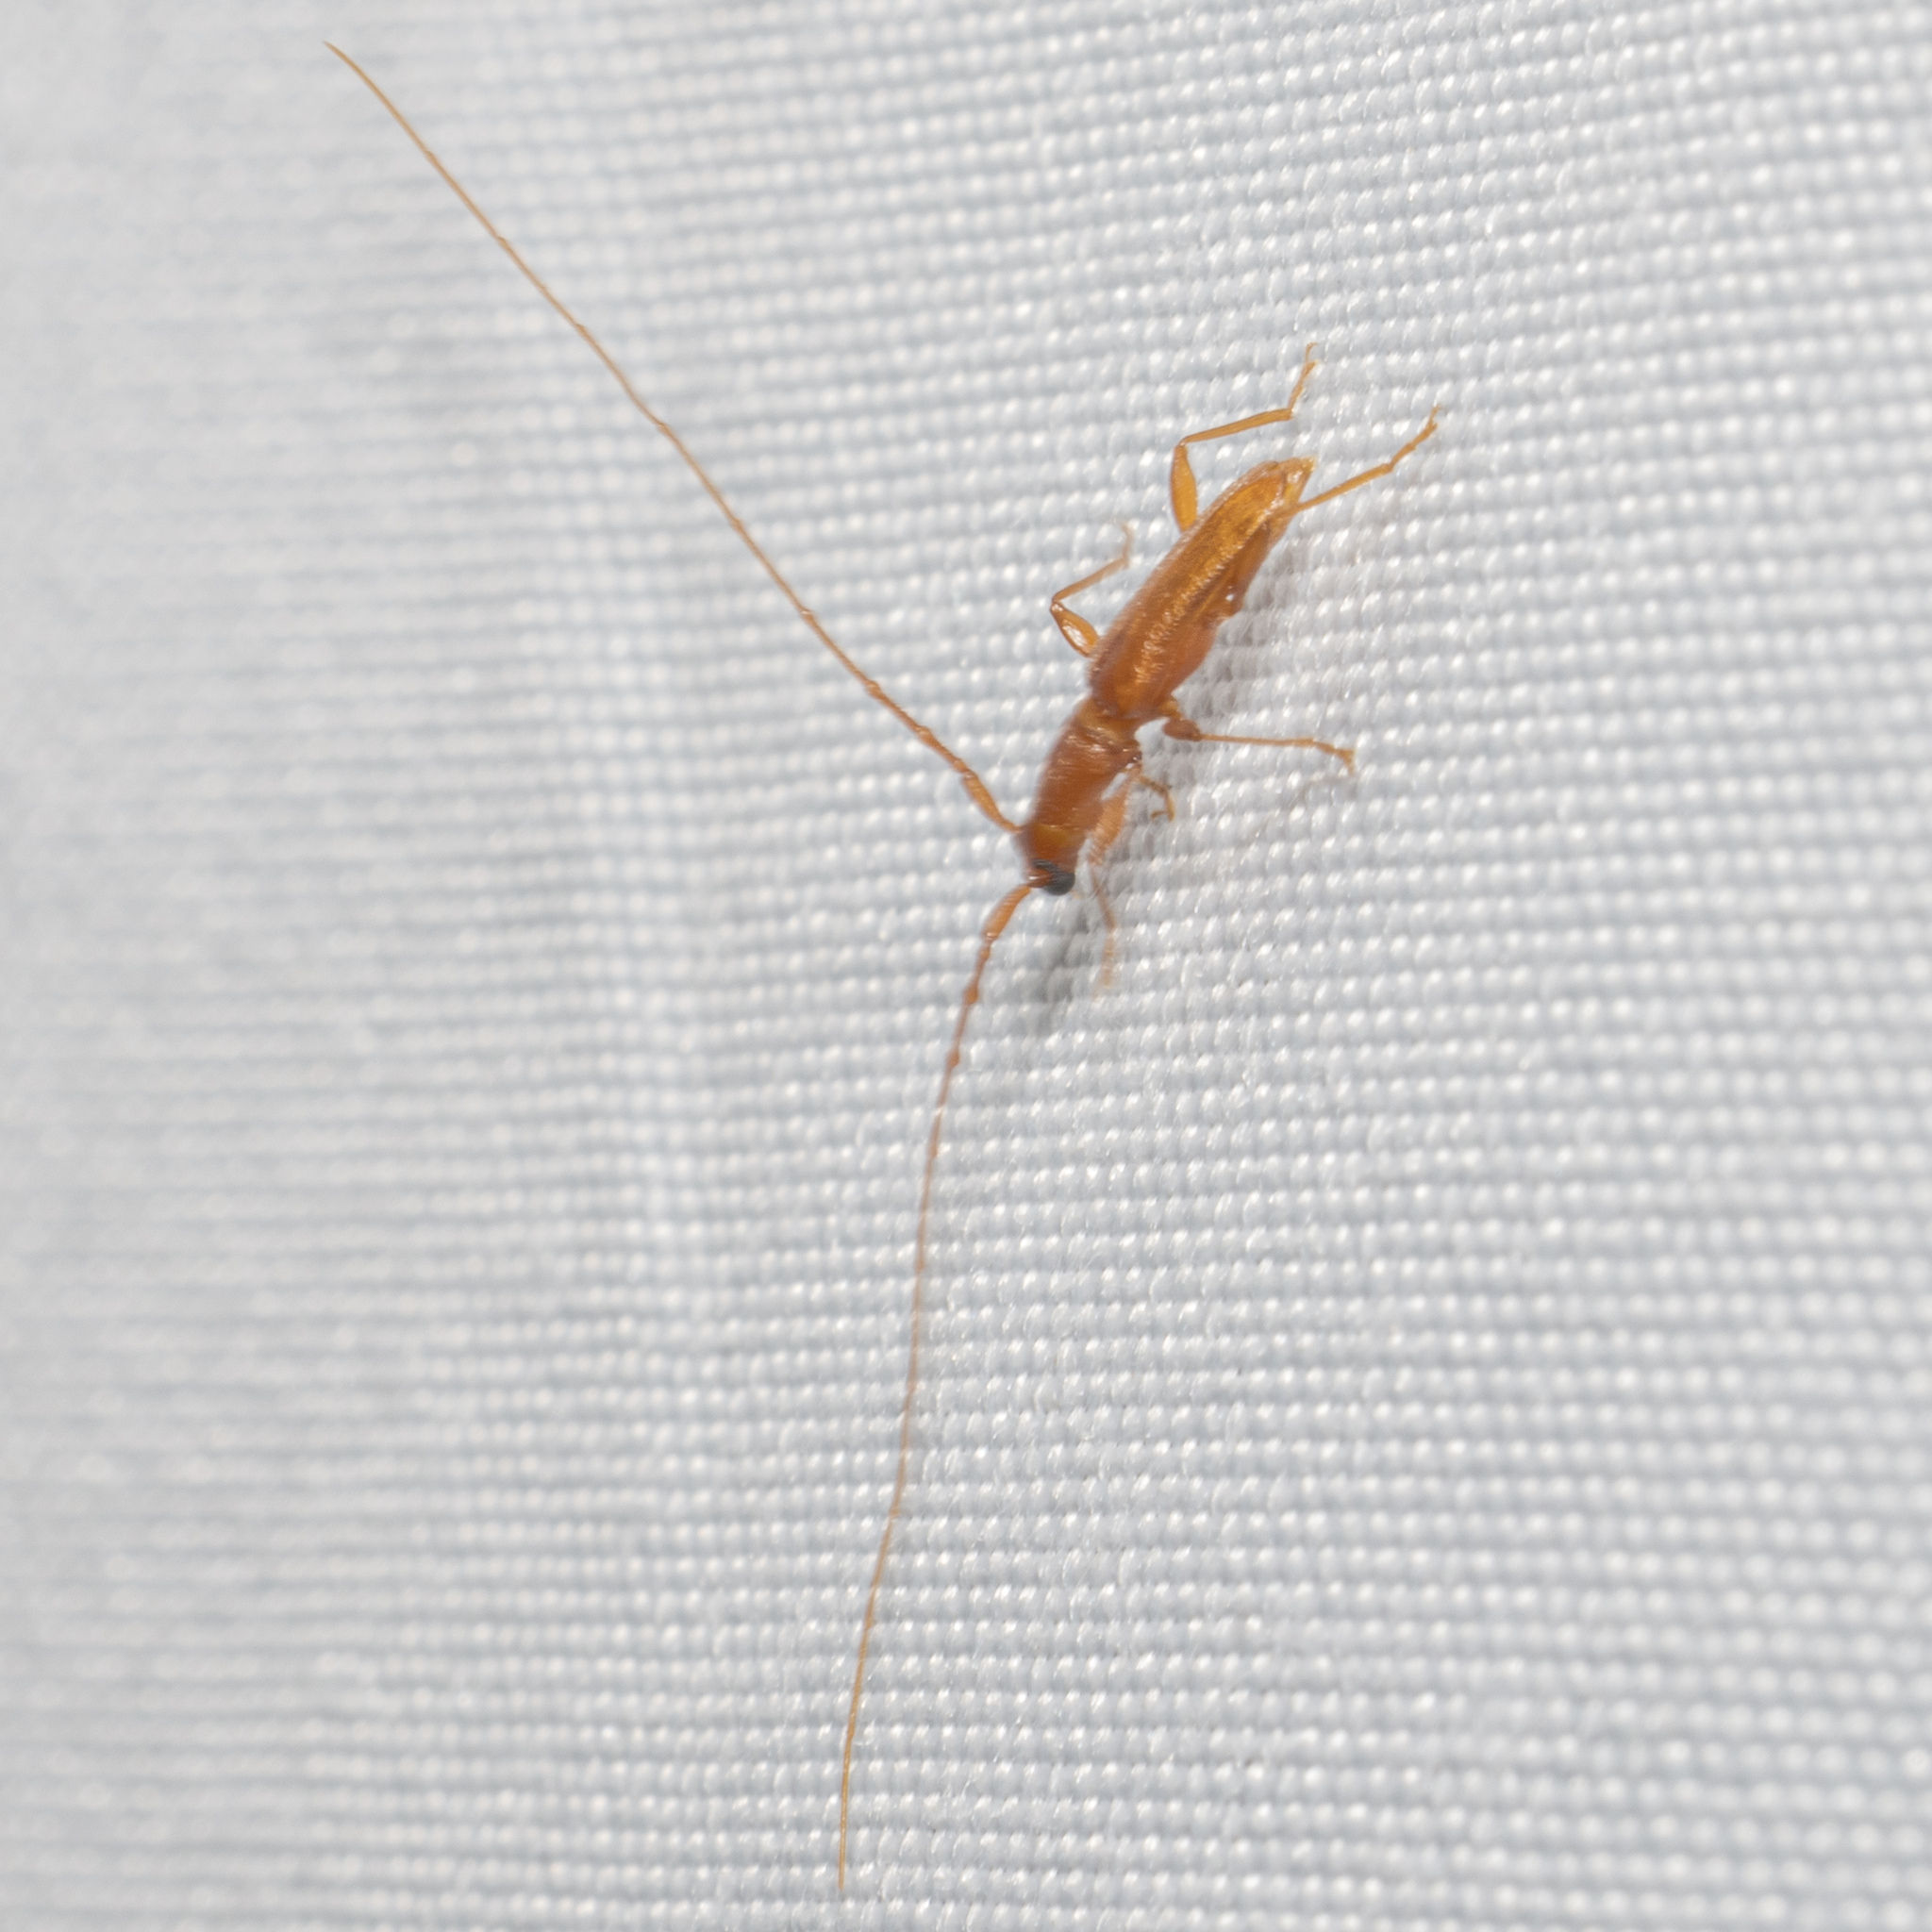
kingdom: Animalia
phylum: Arthropoda
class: Insecta
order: Coleoptera
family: Cerambycidae
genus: Hypexilis
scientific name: Hypexilis pallida
